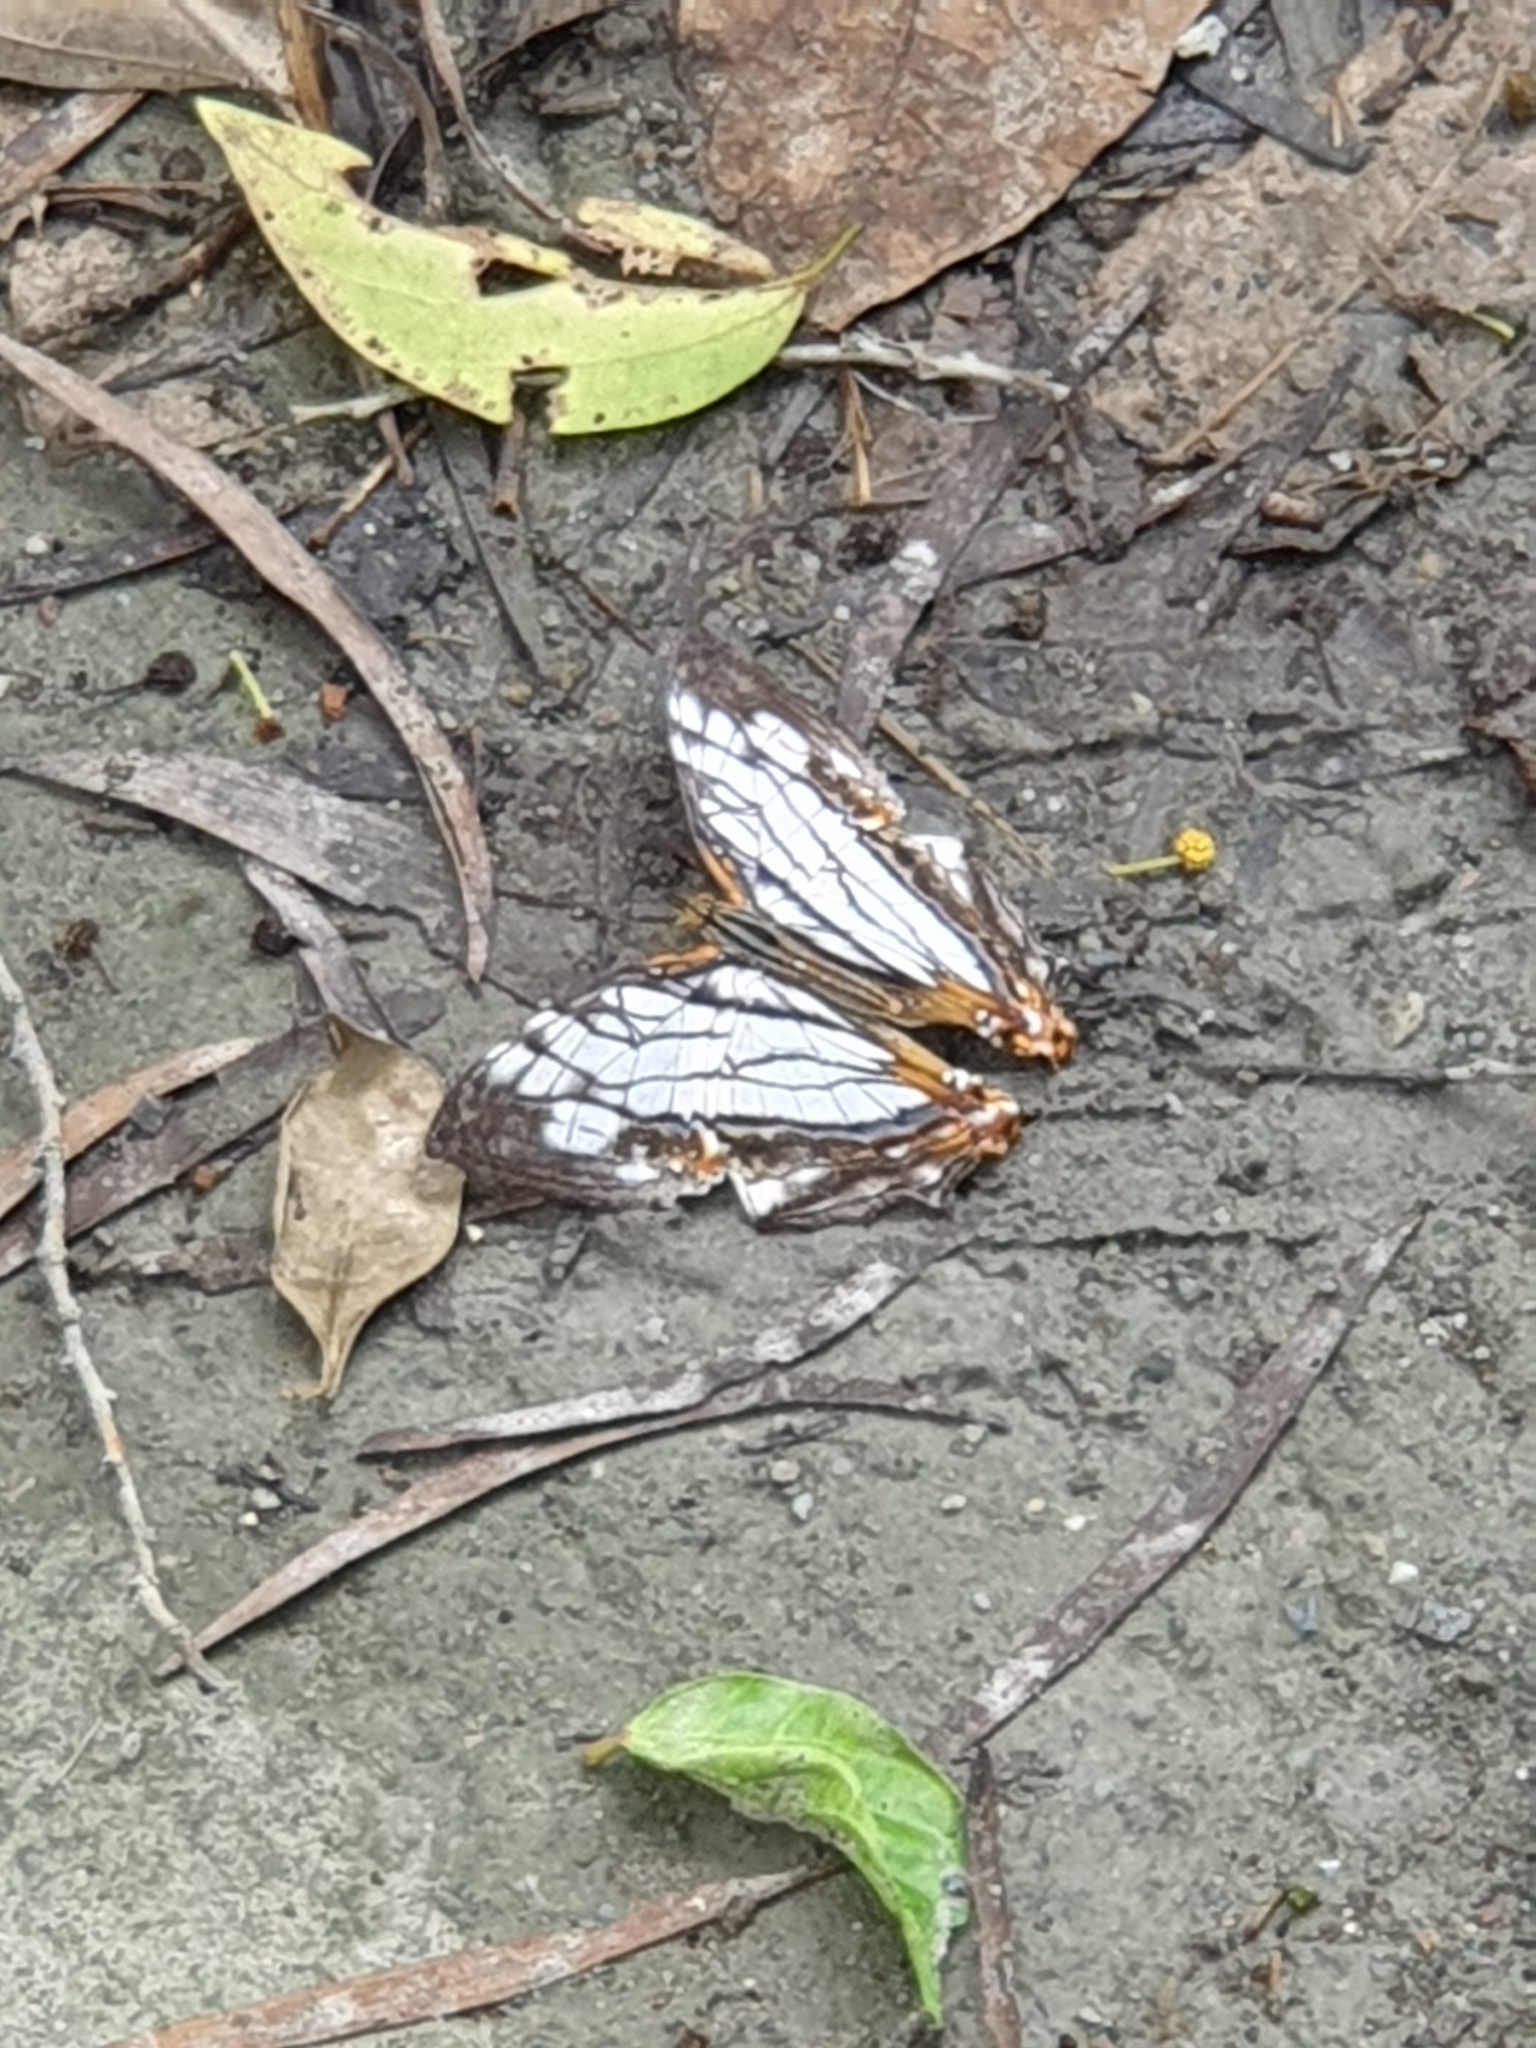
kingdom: Animalia
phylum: Arthropoda
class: Insecta
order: Lepidoptera
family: Nymphalidae
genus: Cyrestis
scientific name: Cyrestis thyodamas
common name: Common mapwing
